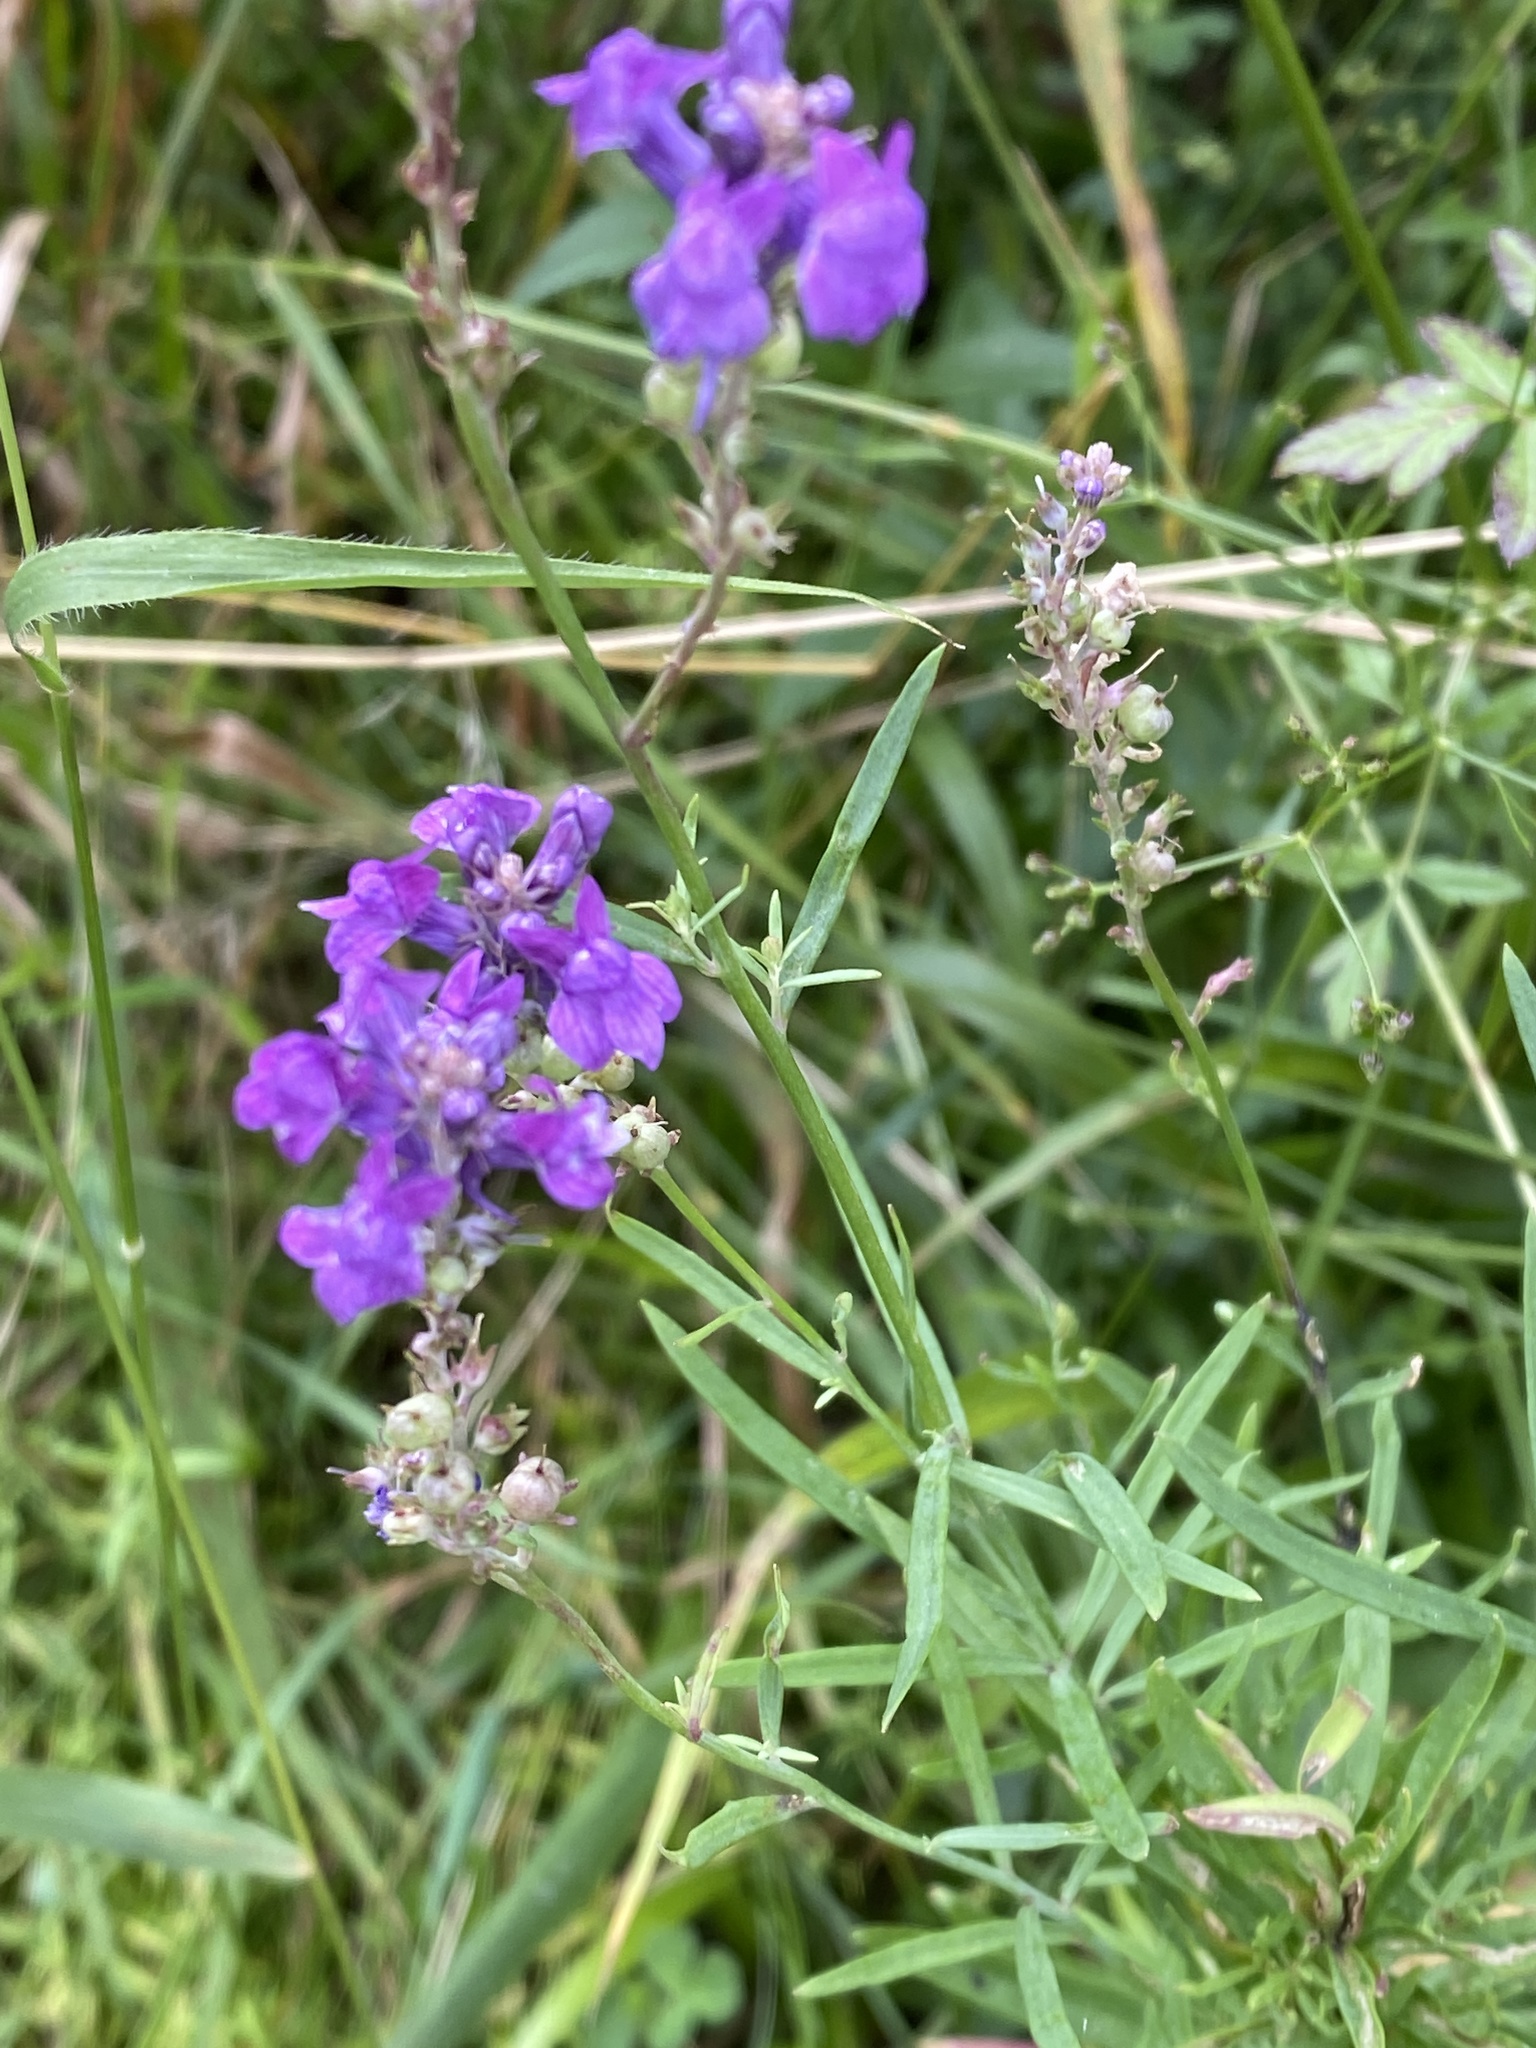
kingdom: Plantae
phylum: Tracheophyta
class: Magnoliopsida
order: Lamiales
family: Plantaginaceae
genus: Linaria
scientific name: Linaria purpurea
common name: Purple toadflax
